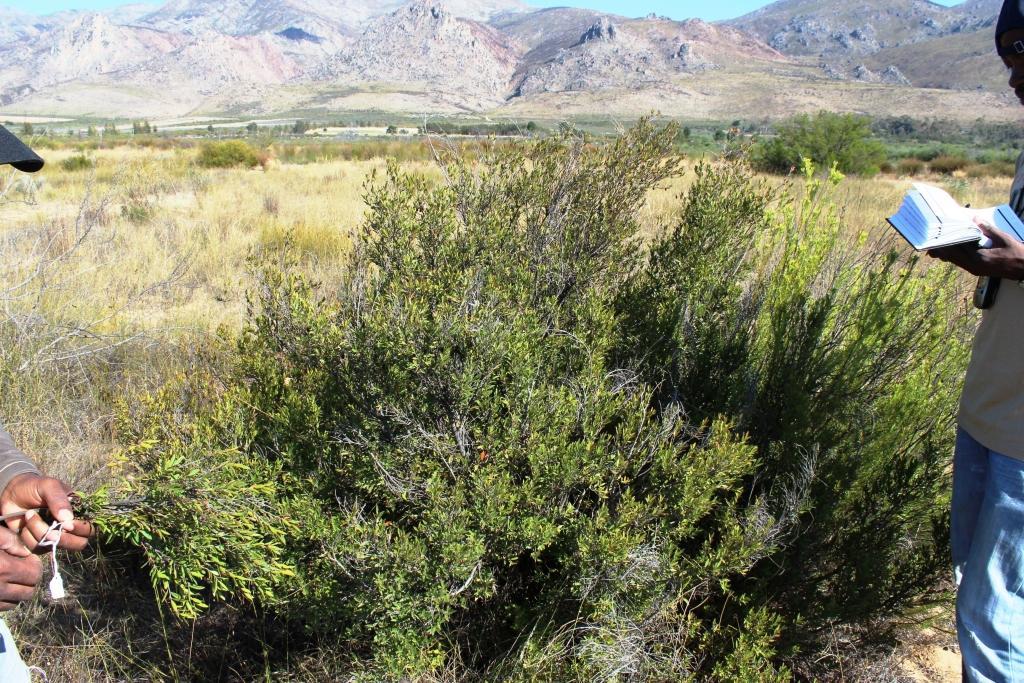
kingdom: Plantae
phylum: Tracheophyta
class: Magnoliopsida
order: Ericales
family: Ebenaceae
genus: Diospyros
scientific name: Diospyros glabra
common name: Fynbos star apple
